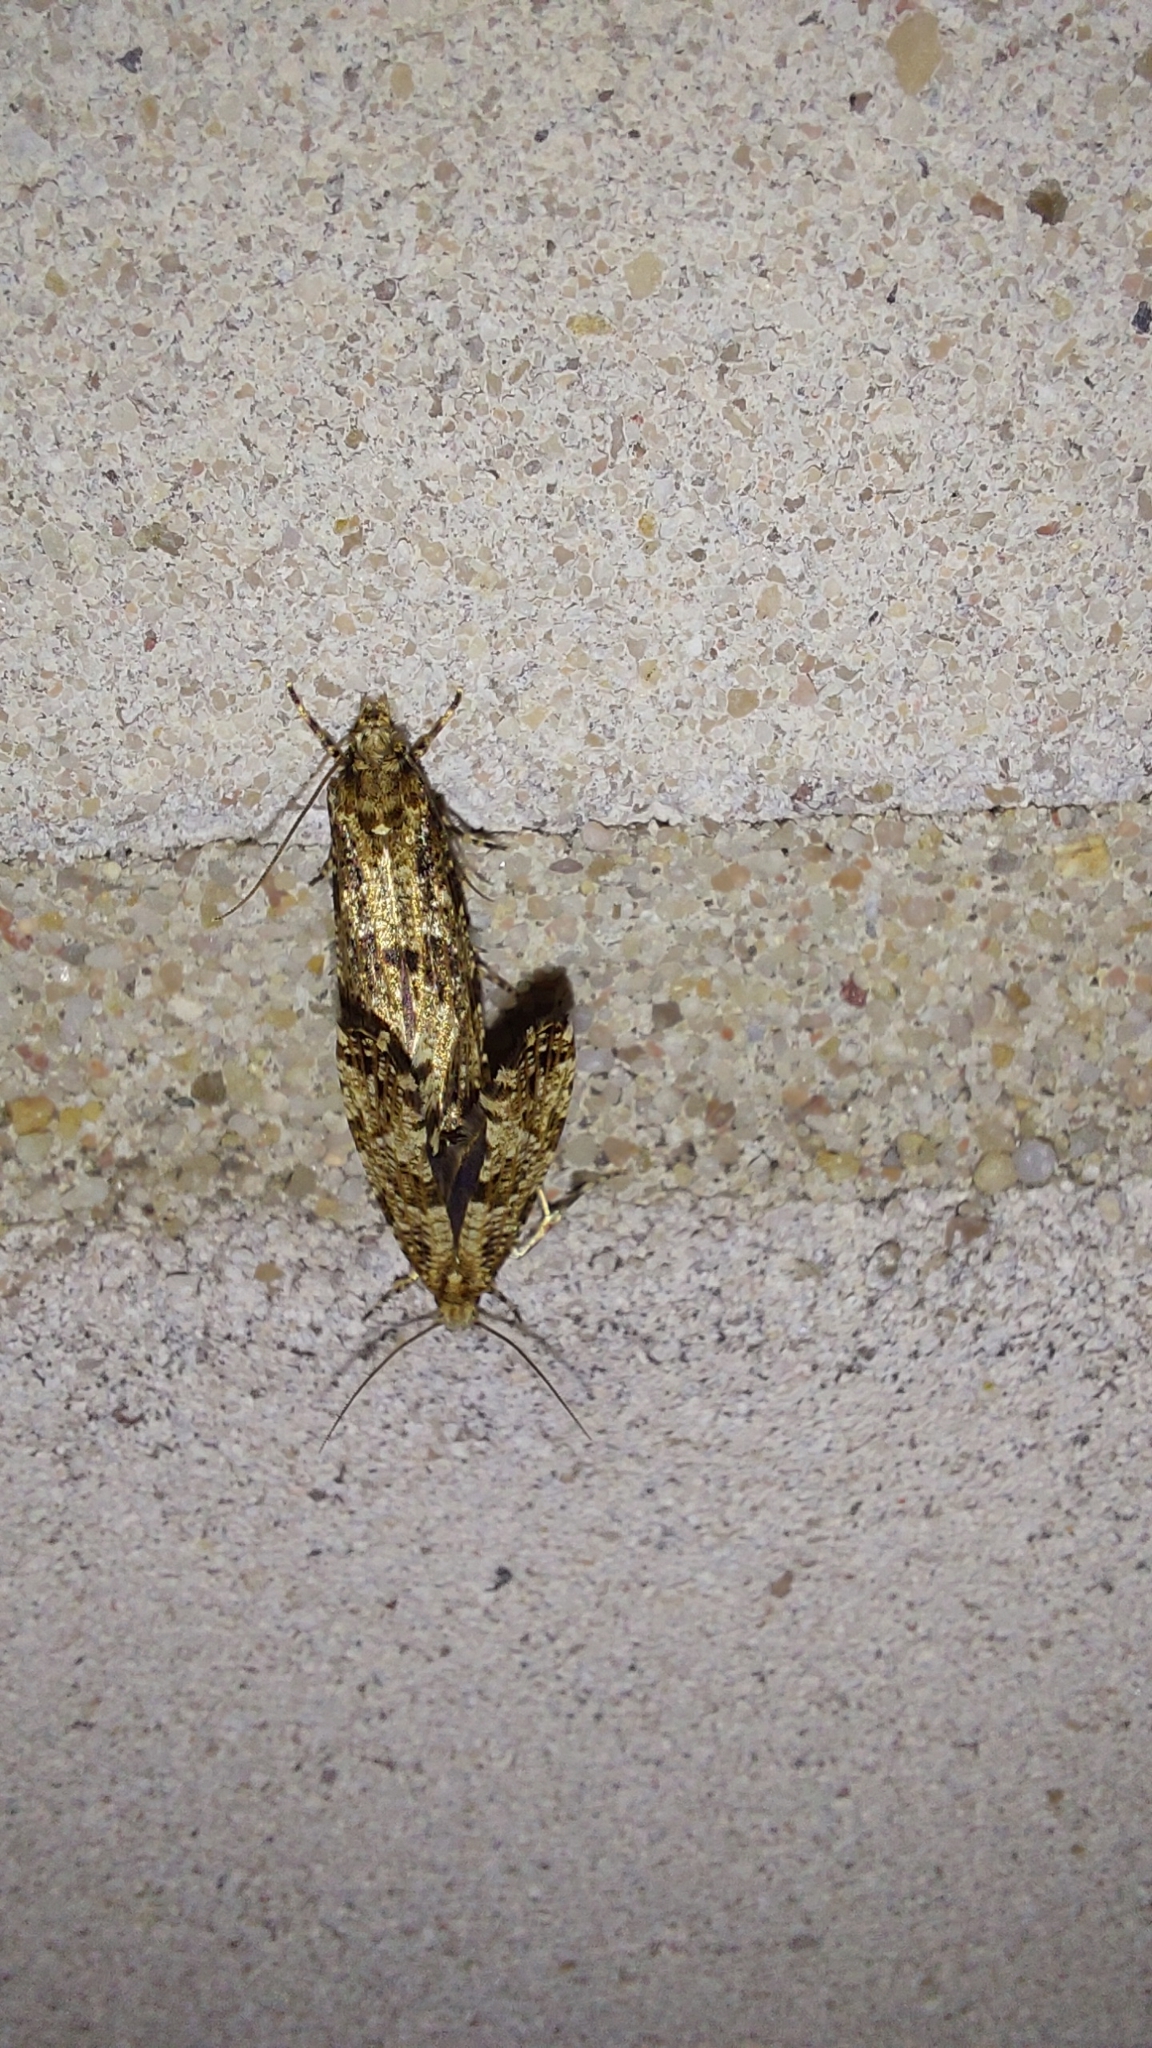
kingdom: Animalia
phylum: Arthropoda
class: Insecta
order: Lepidoptera
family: Tineidae
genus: Morophaga
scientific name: Morophaga choragella
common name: Large clothes
